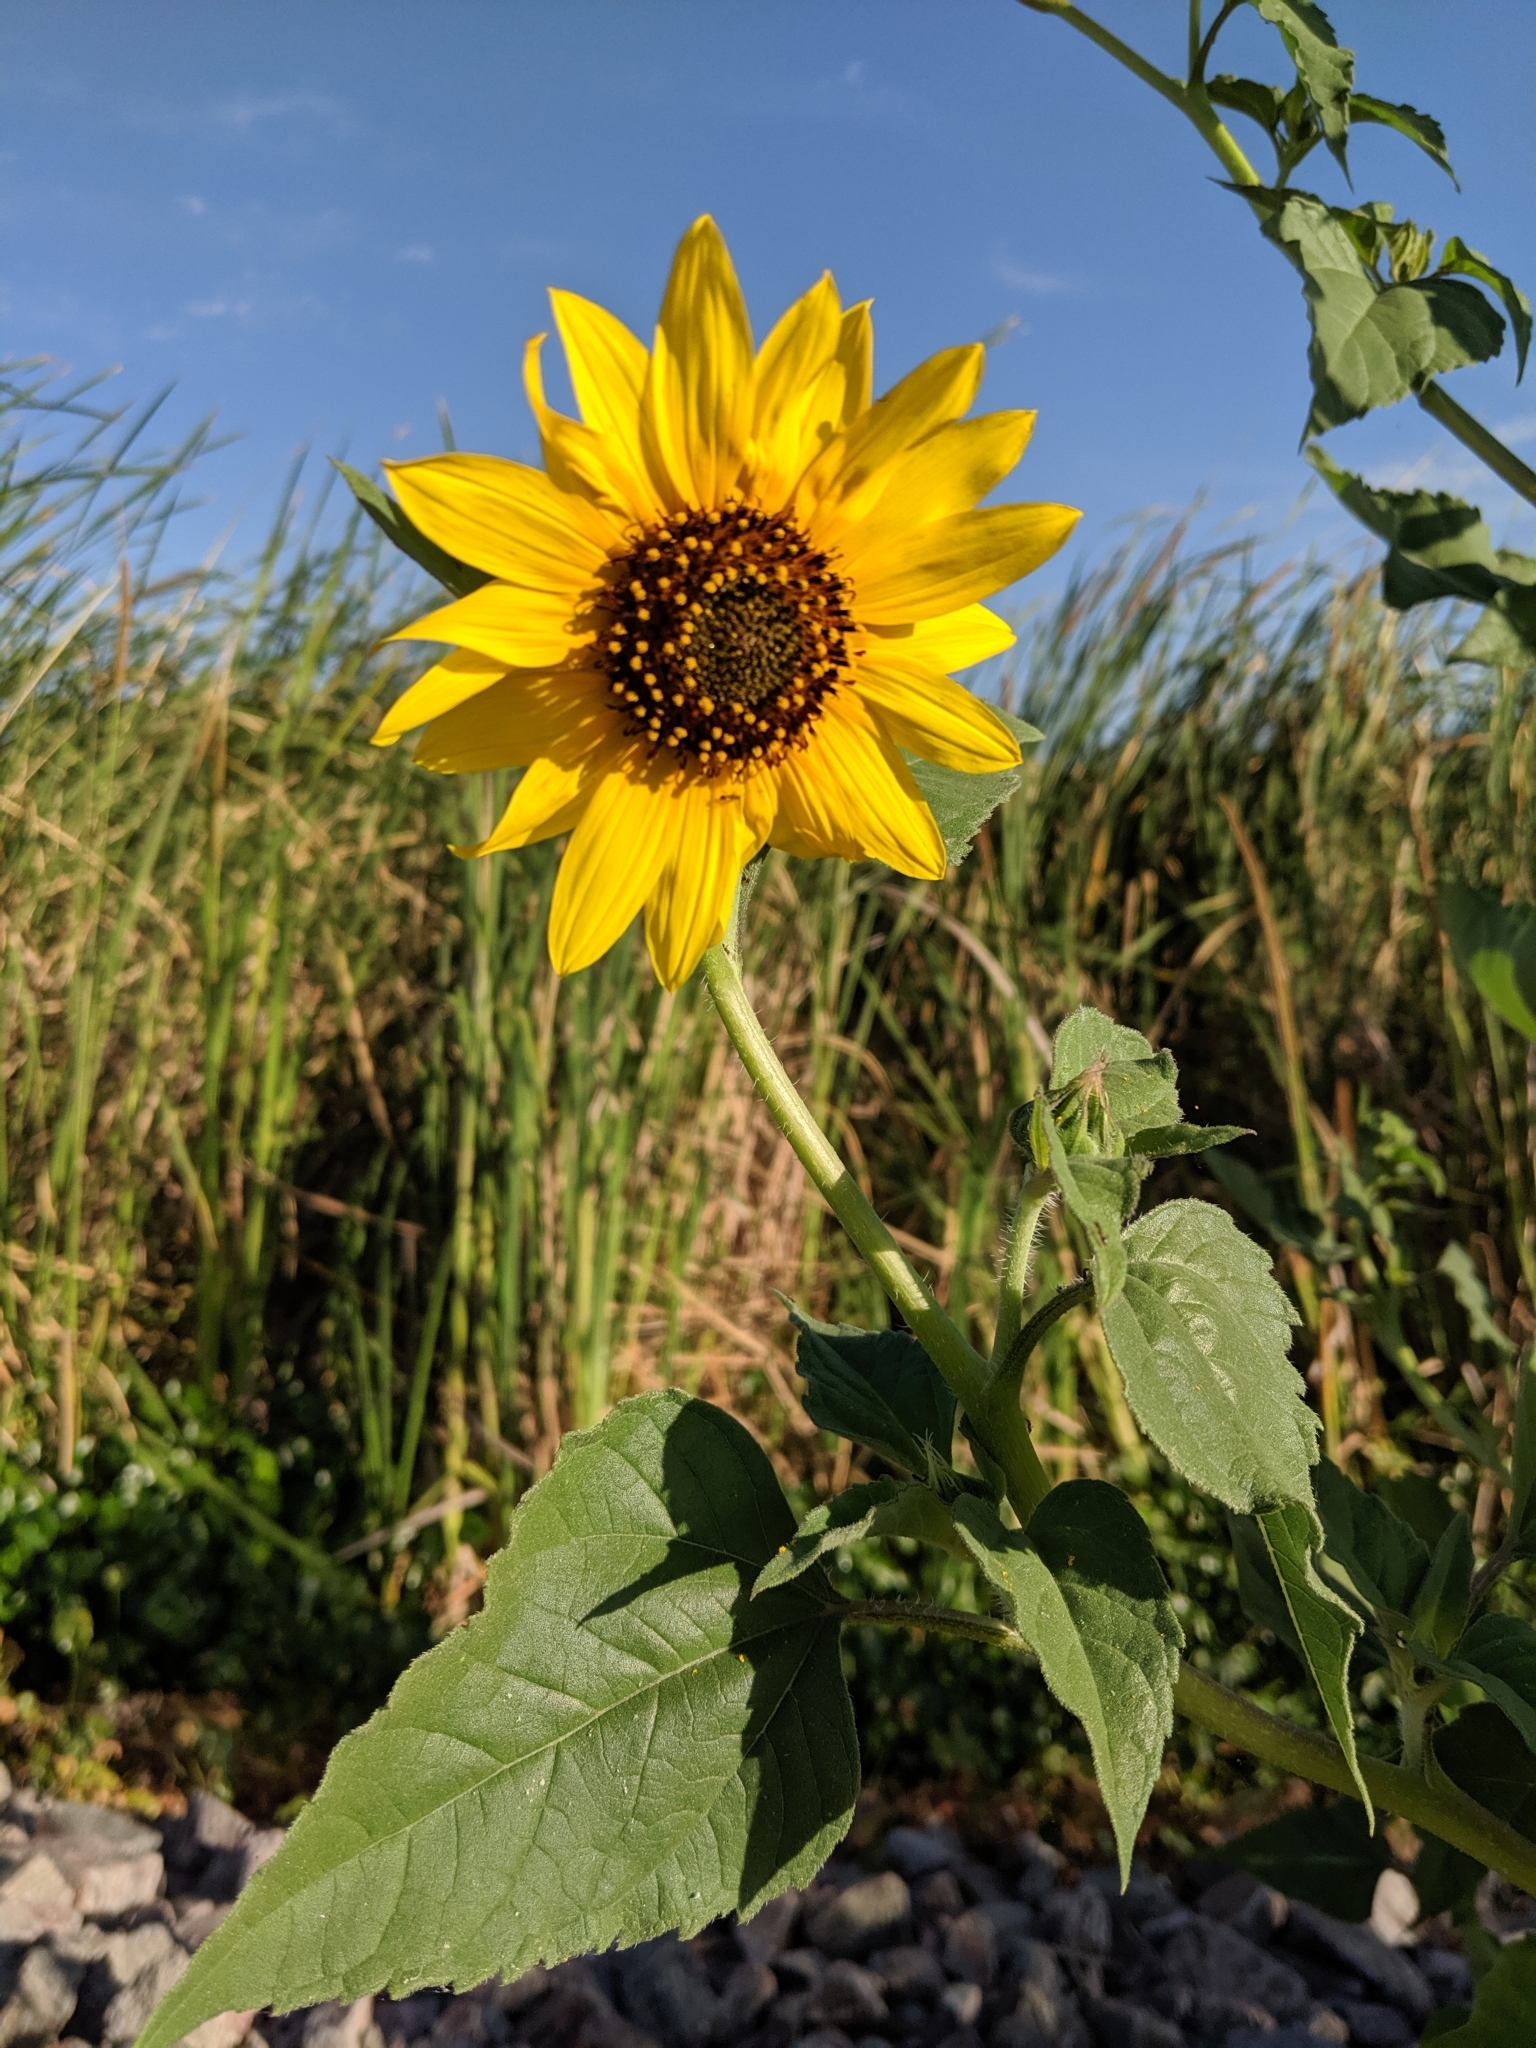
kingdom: Plantae
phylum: Tracheophyta
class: Magnoliopsida
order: Asterales
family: Asteraceae
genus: Helianthus
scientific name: Helianthus annuus
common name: Sunflower
